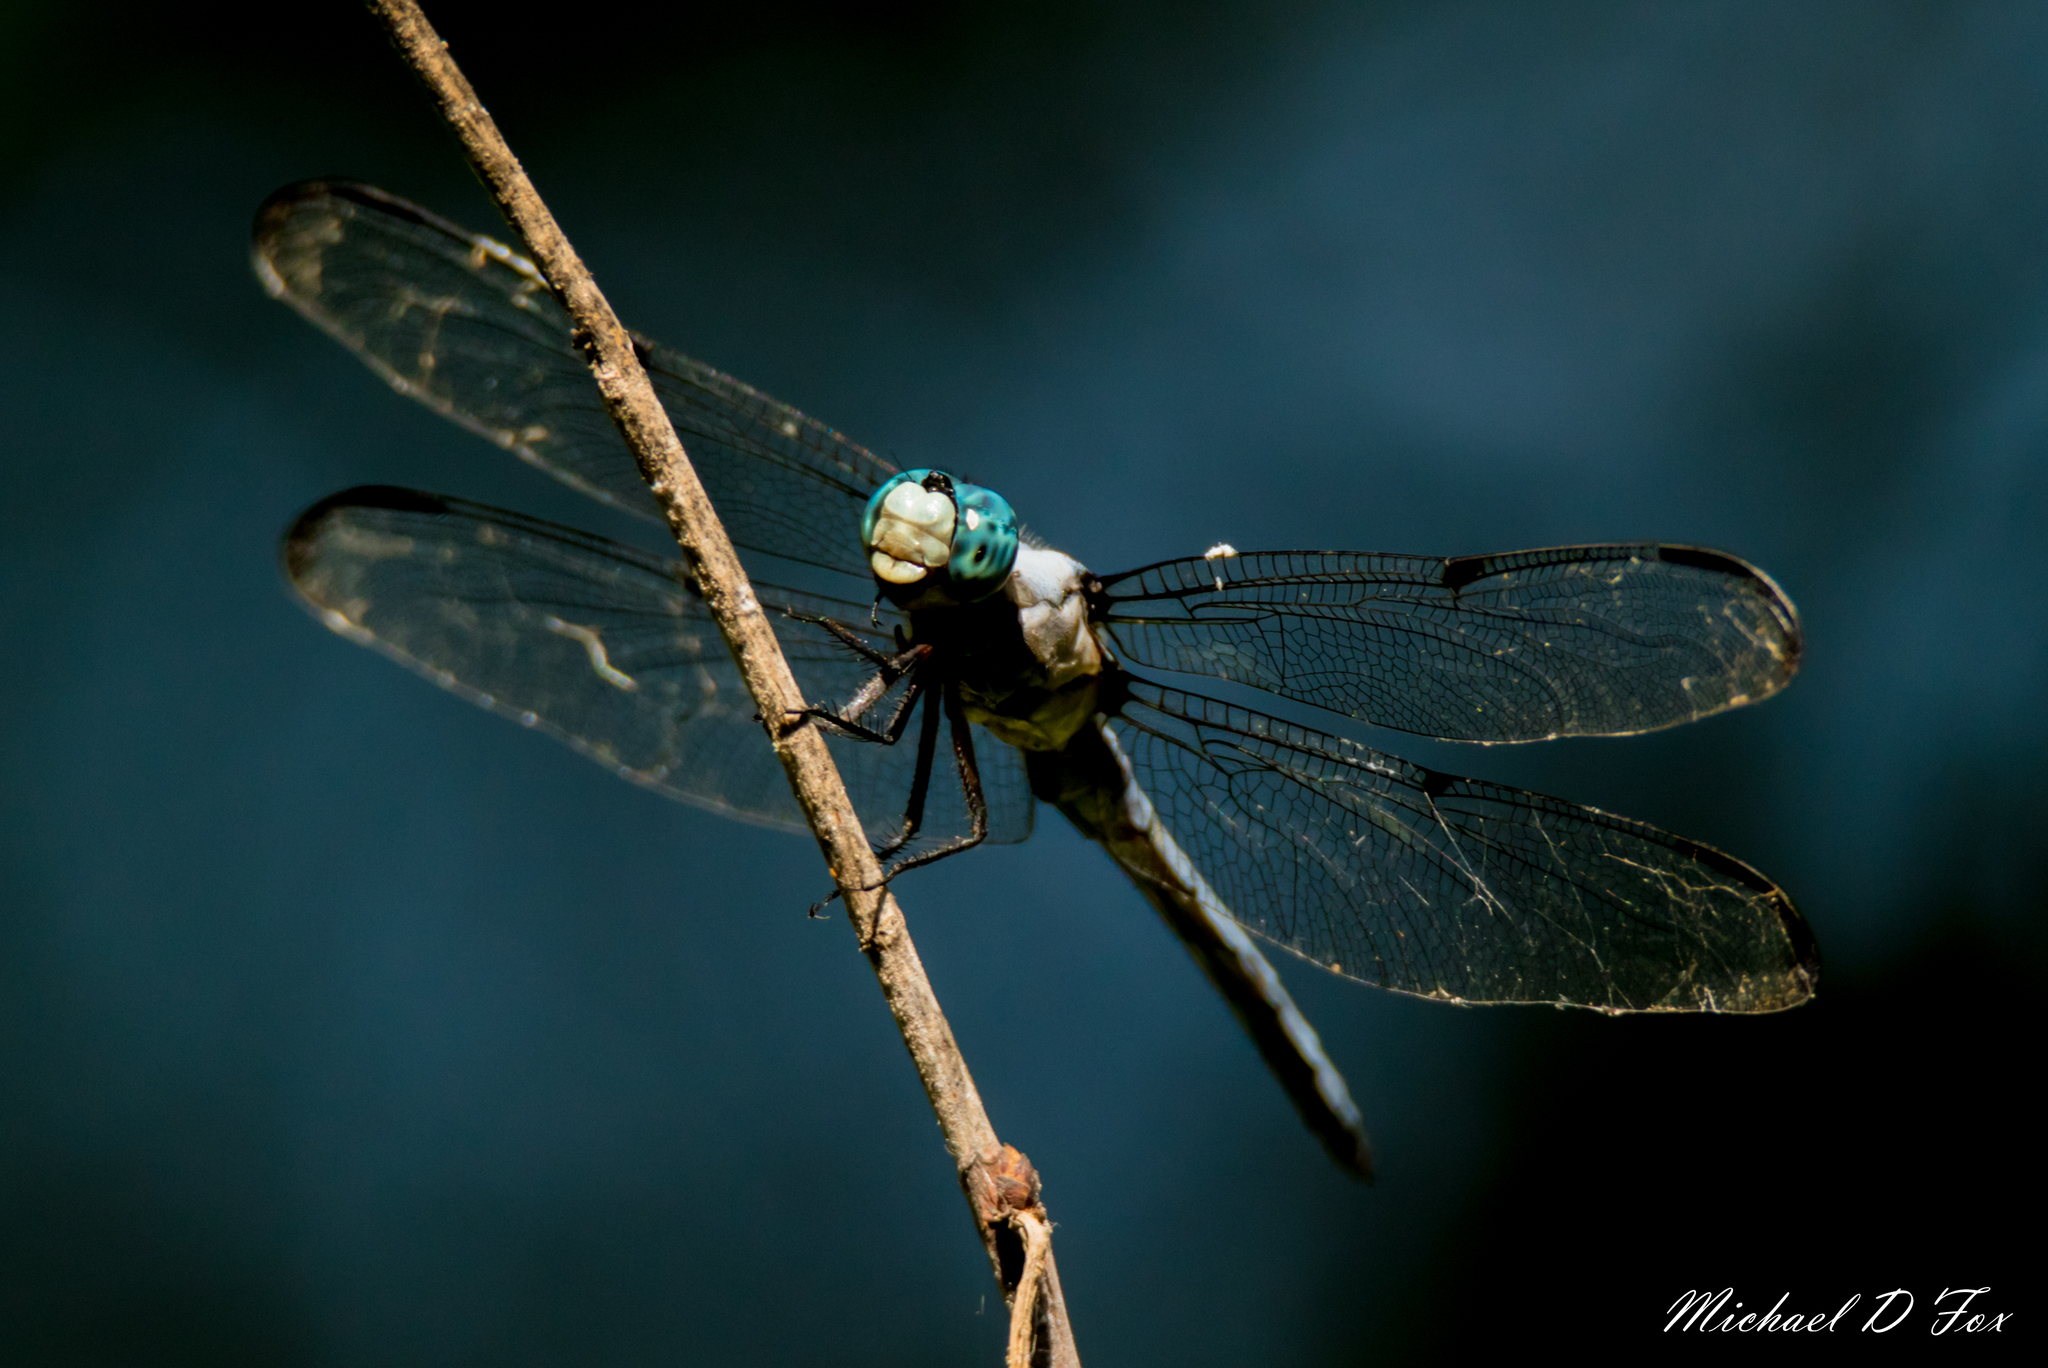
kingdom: Animalia
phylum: Arthropoda
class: Insecta
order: Odonata
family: Libellulidae
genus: Libellula
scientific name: Libellula vibrans
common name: Great blue skimmer
